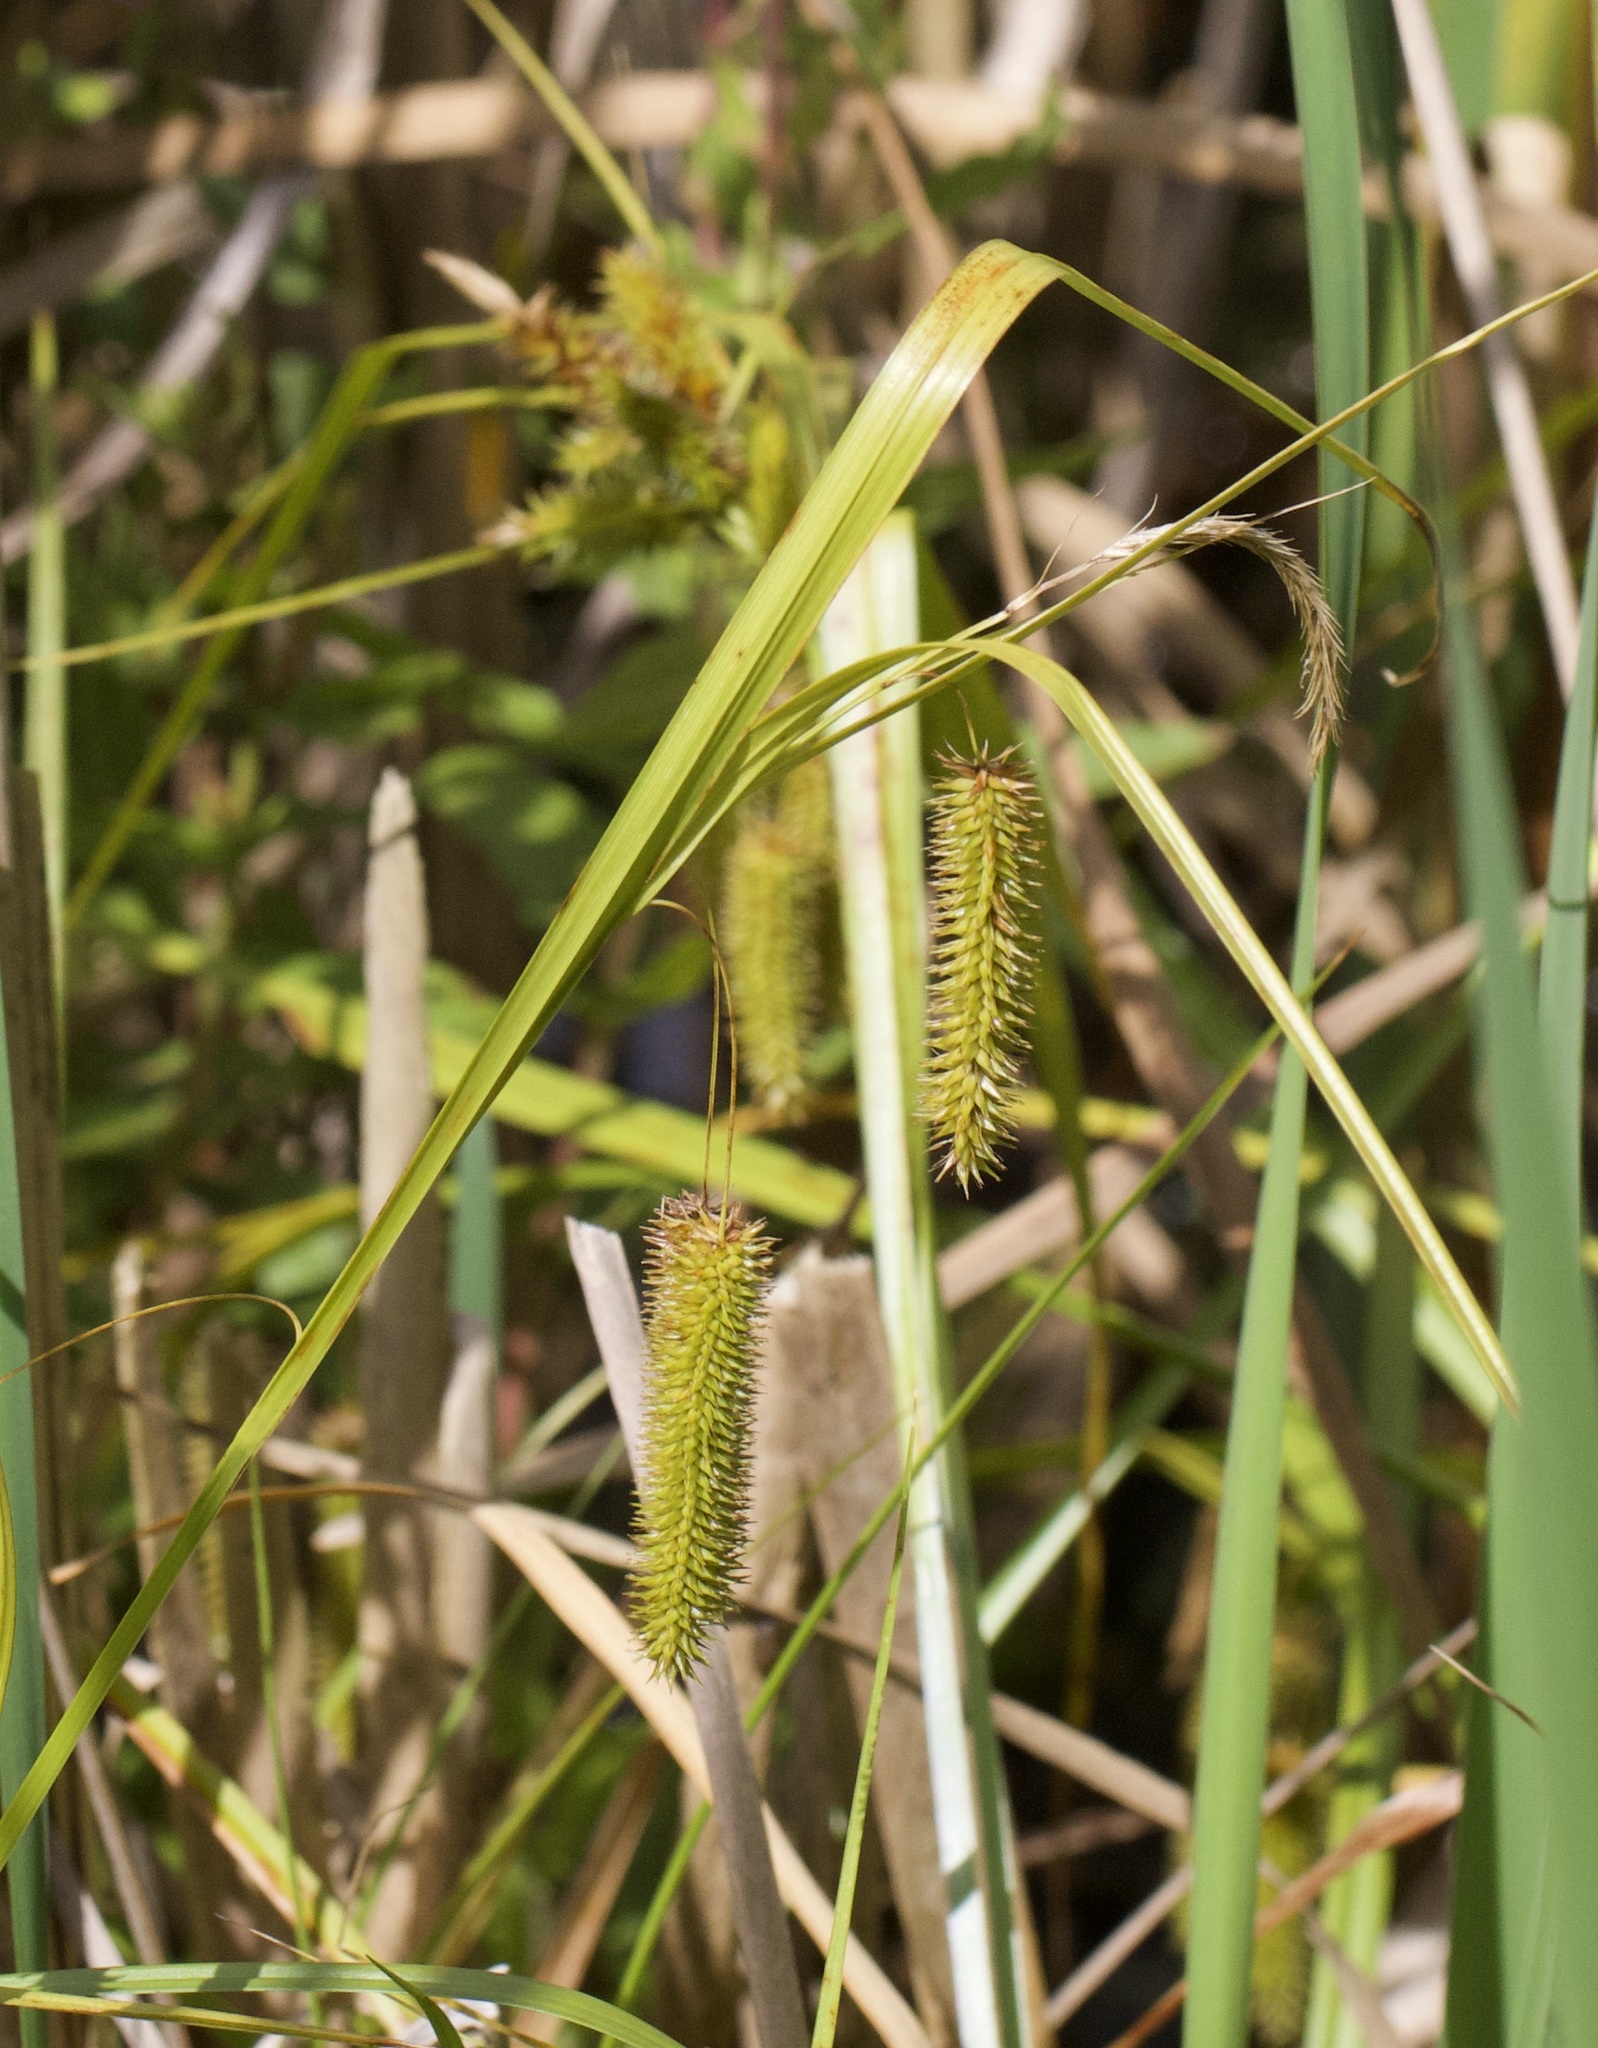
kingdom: Plantae
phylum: Tracheophyta
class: Liliopsida
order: Poales
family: Cyperaceae
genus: Carex
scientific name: Carex pseudocyperus
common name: Cyperus sedge
